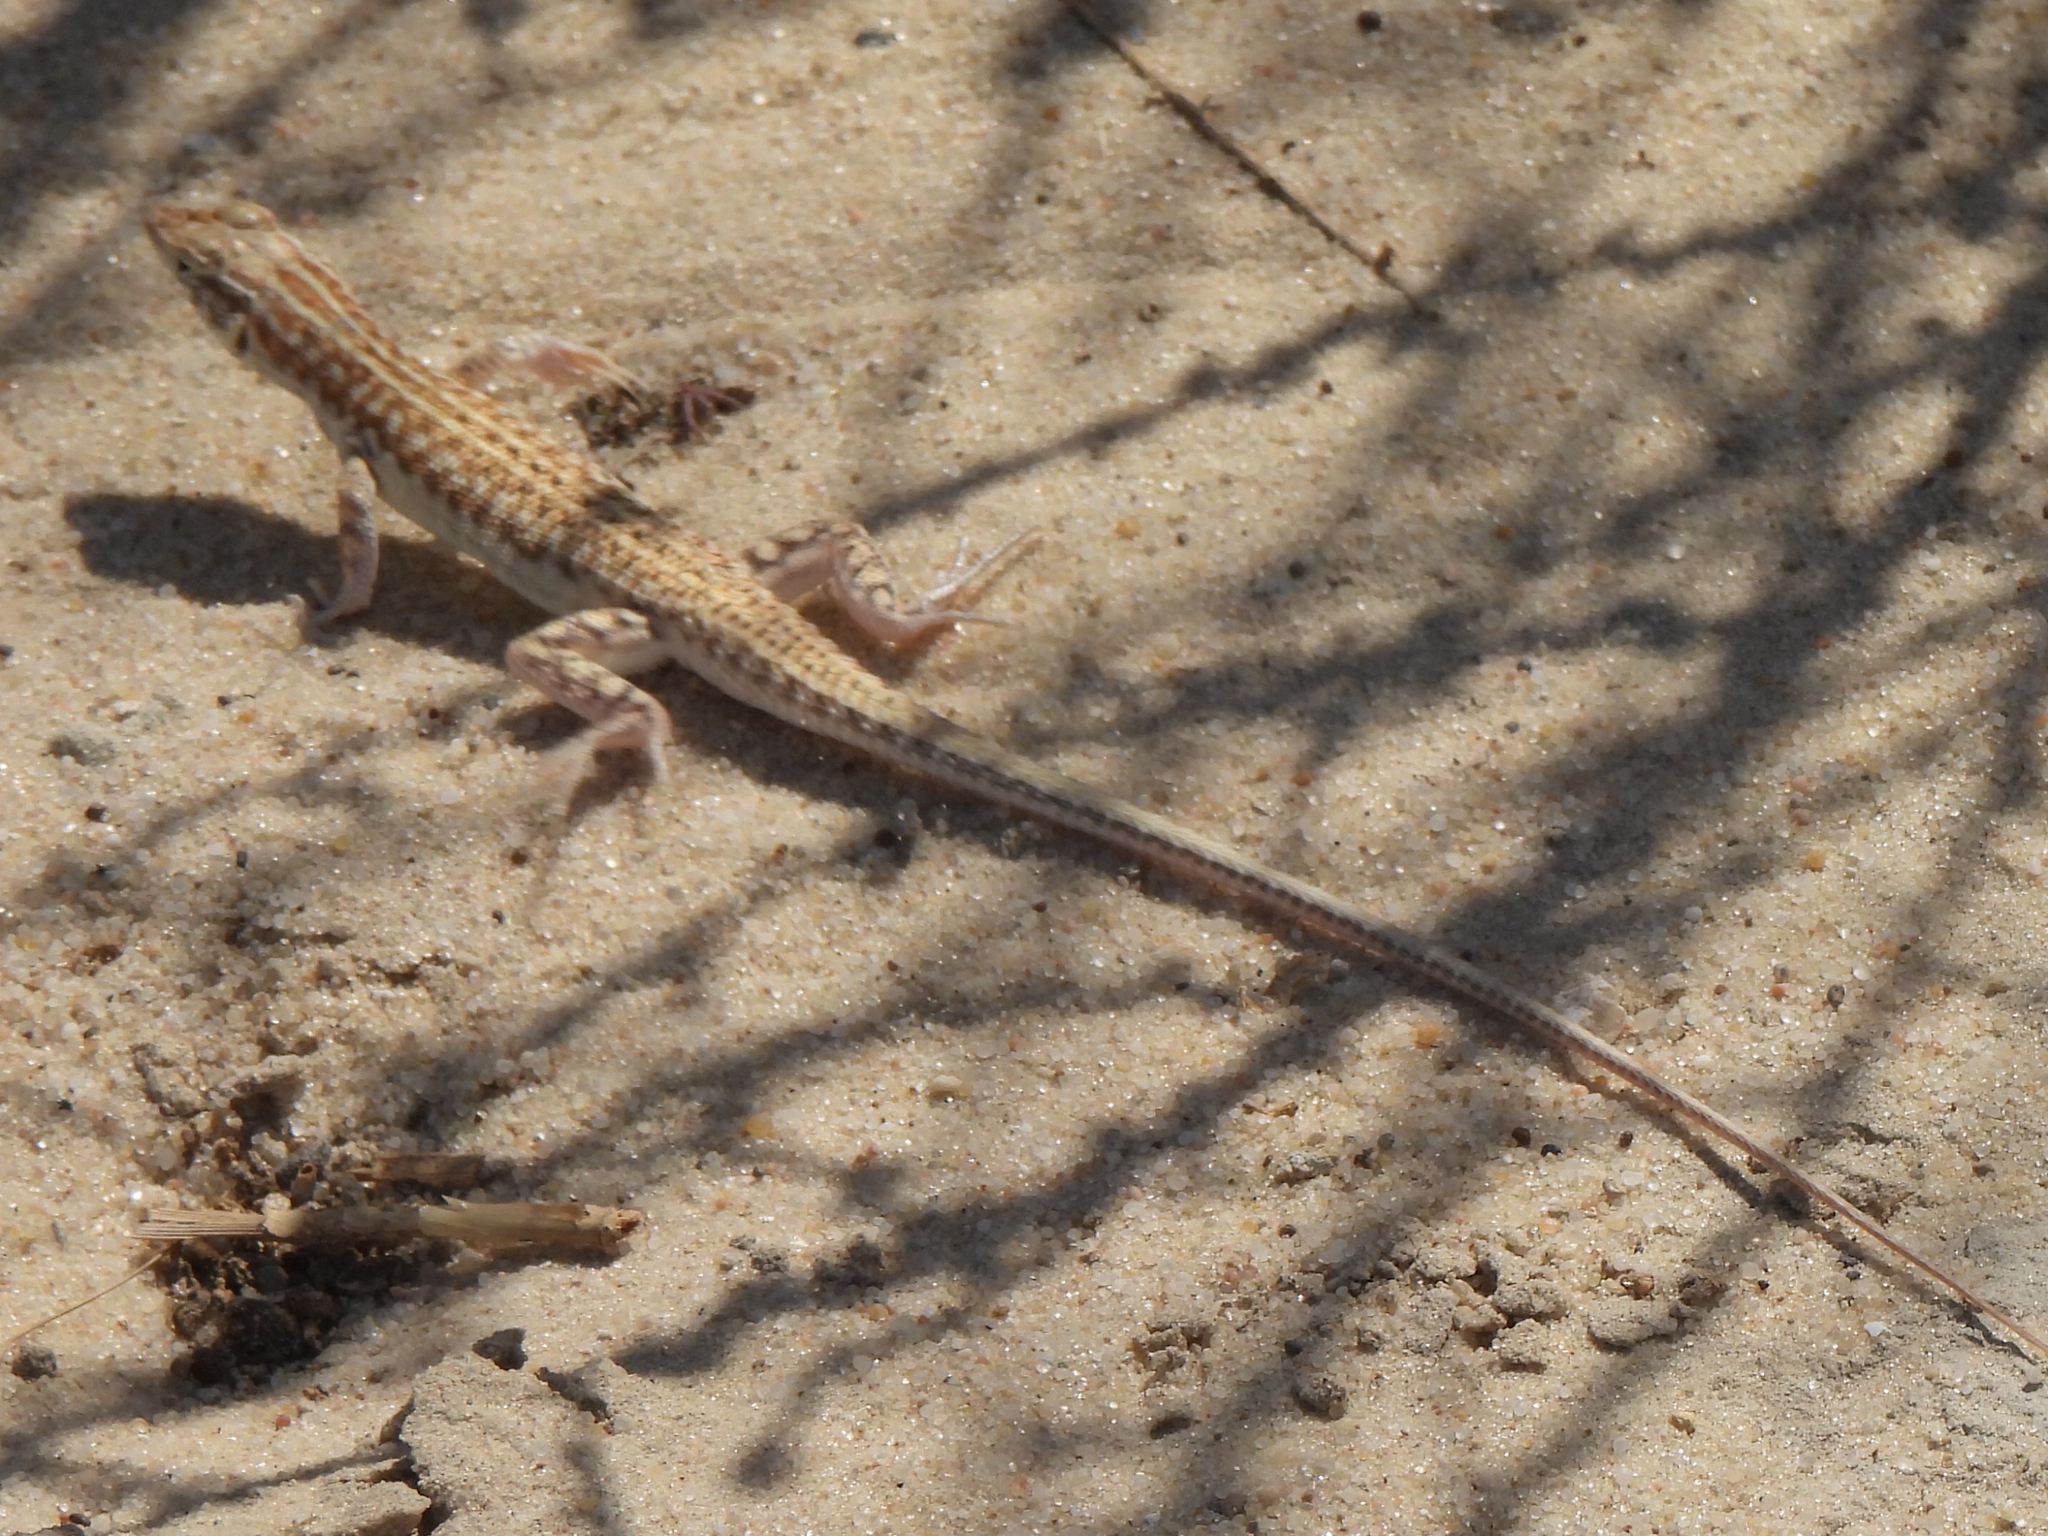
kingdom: Animalia
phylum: Chordata
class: Squamata
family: Lacertidae
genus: Acanthodactylus
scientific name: Acanthodactylus opheodurus
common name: Arnold's fringe-fingered lizard
